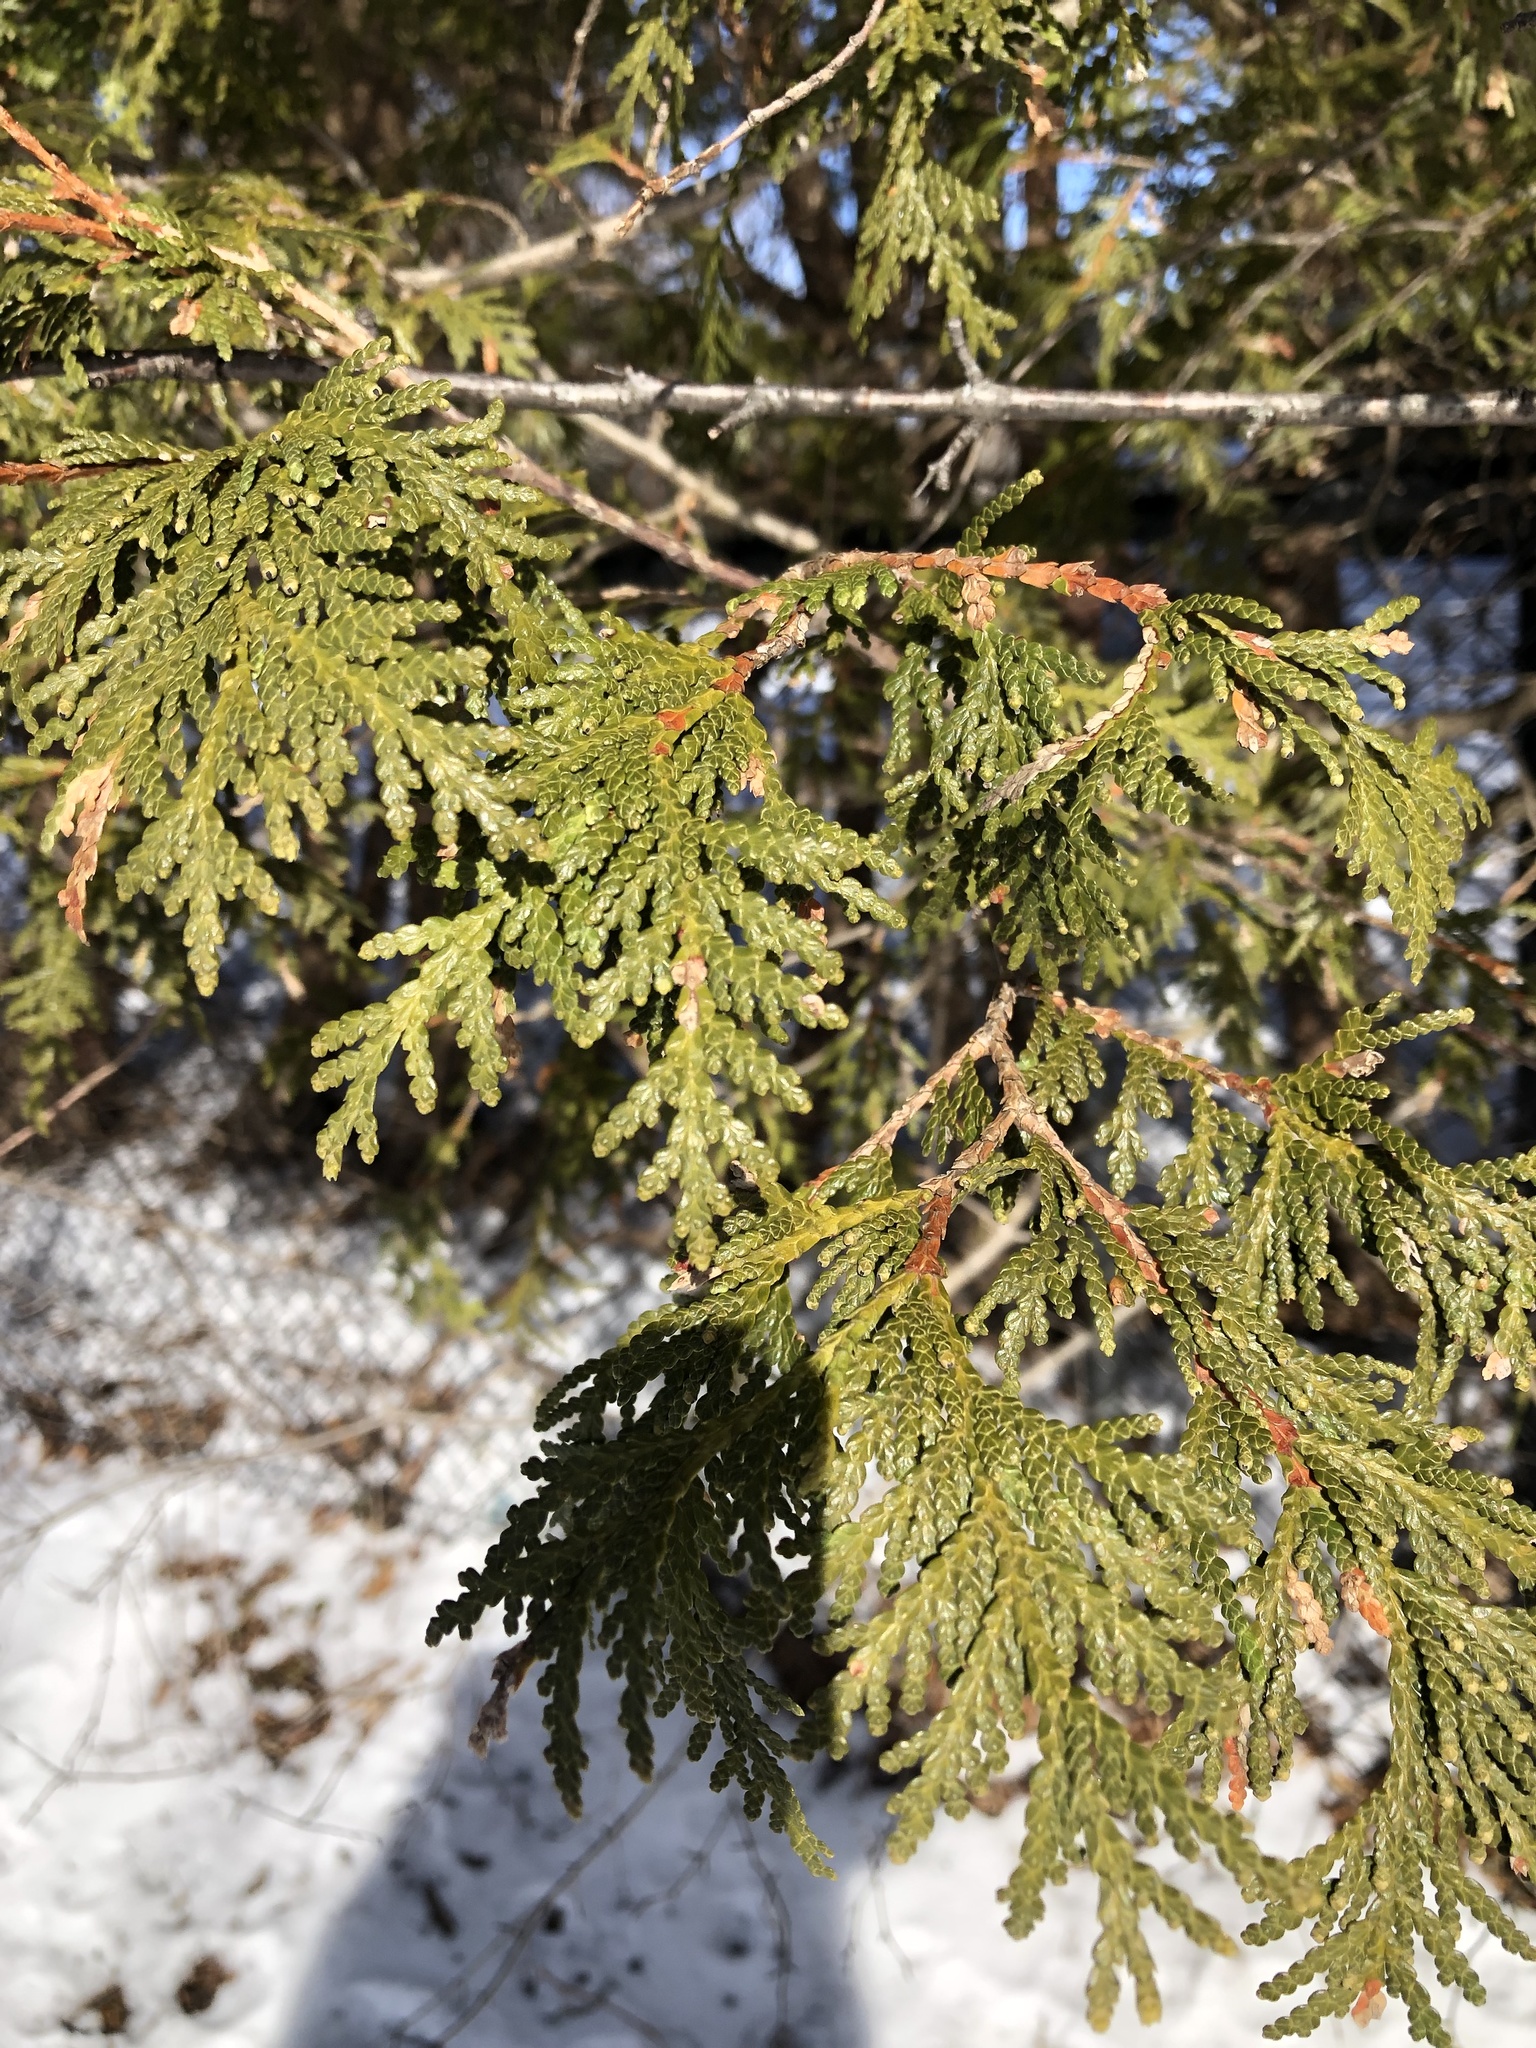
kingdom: Plantae
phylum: Tracheophyta
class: Pinopsida
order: Pinales
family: Cupressaceae
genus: Thuja
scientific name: Thuja occidentalis
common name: Northern white-cedar
